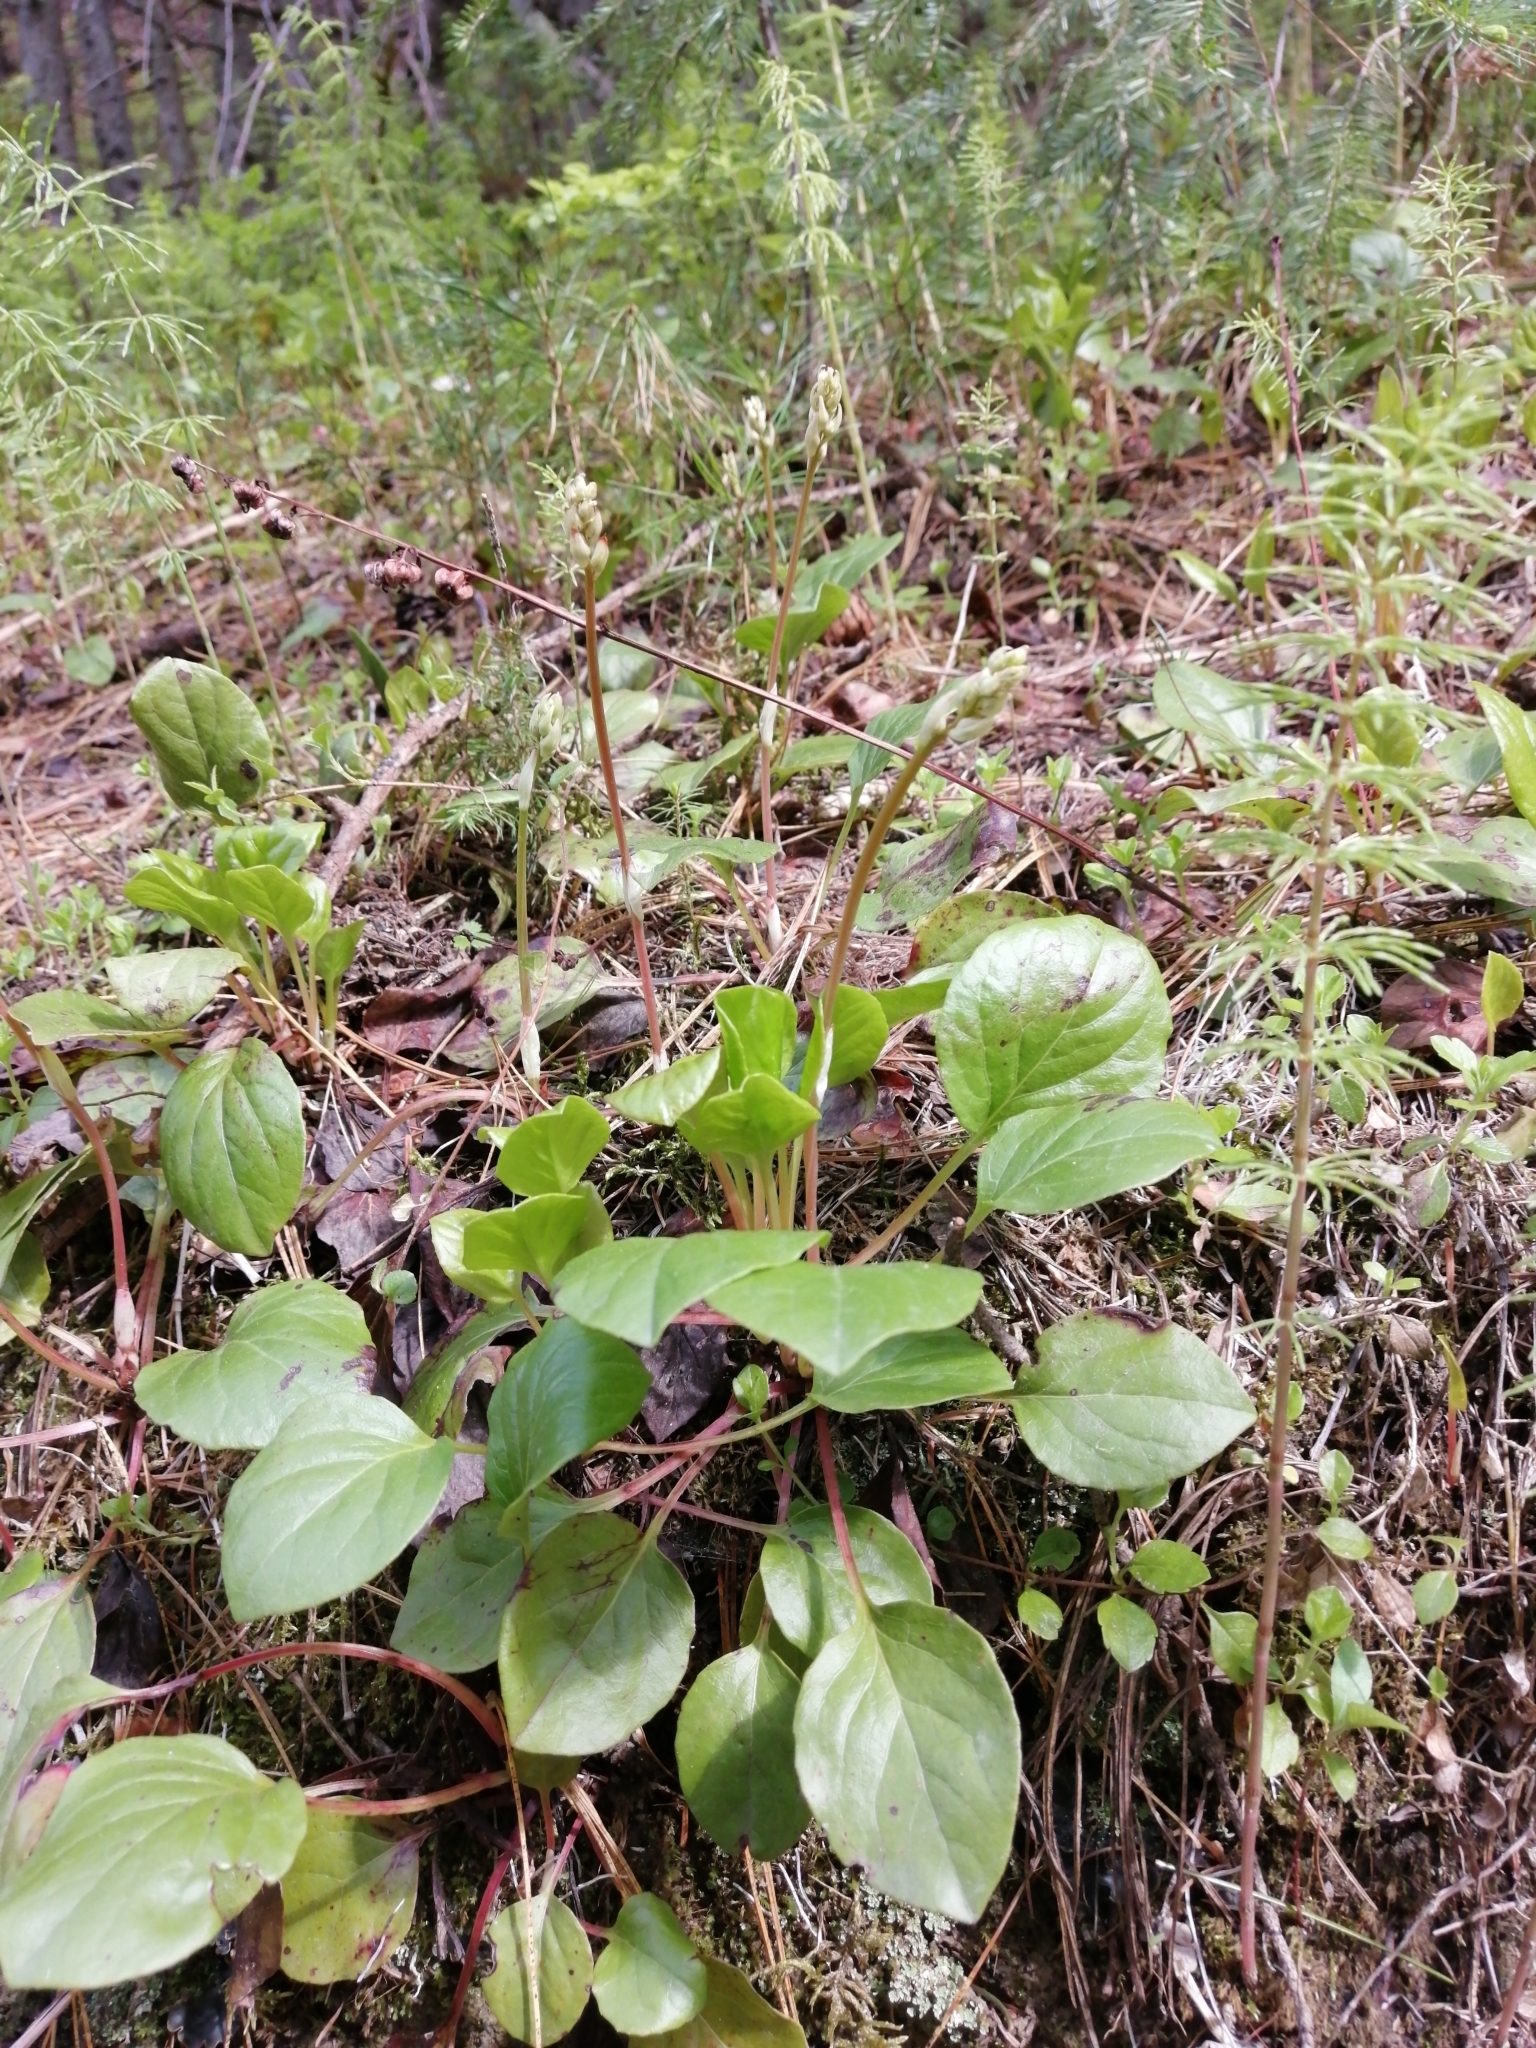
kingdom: Plantae
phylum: Tracheophyta
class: Magnoliopsida
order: Ericales
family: Ericaceae
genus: Pyrola
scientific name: Pyrola asarifolia
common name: Bog wintergreen
